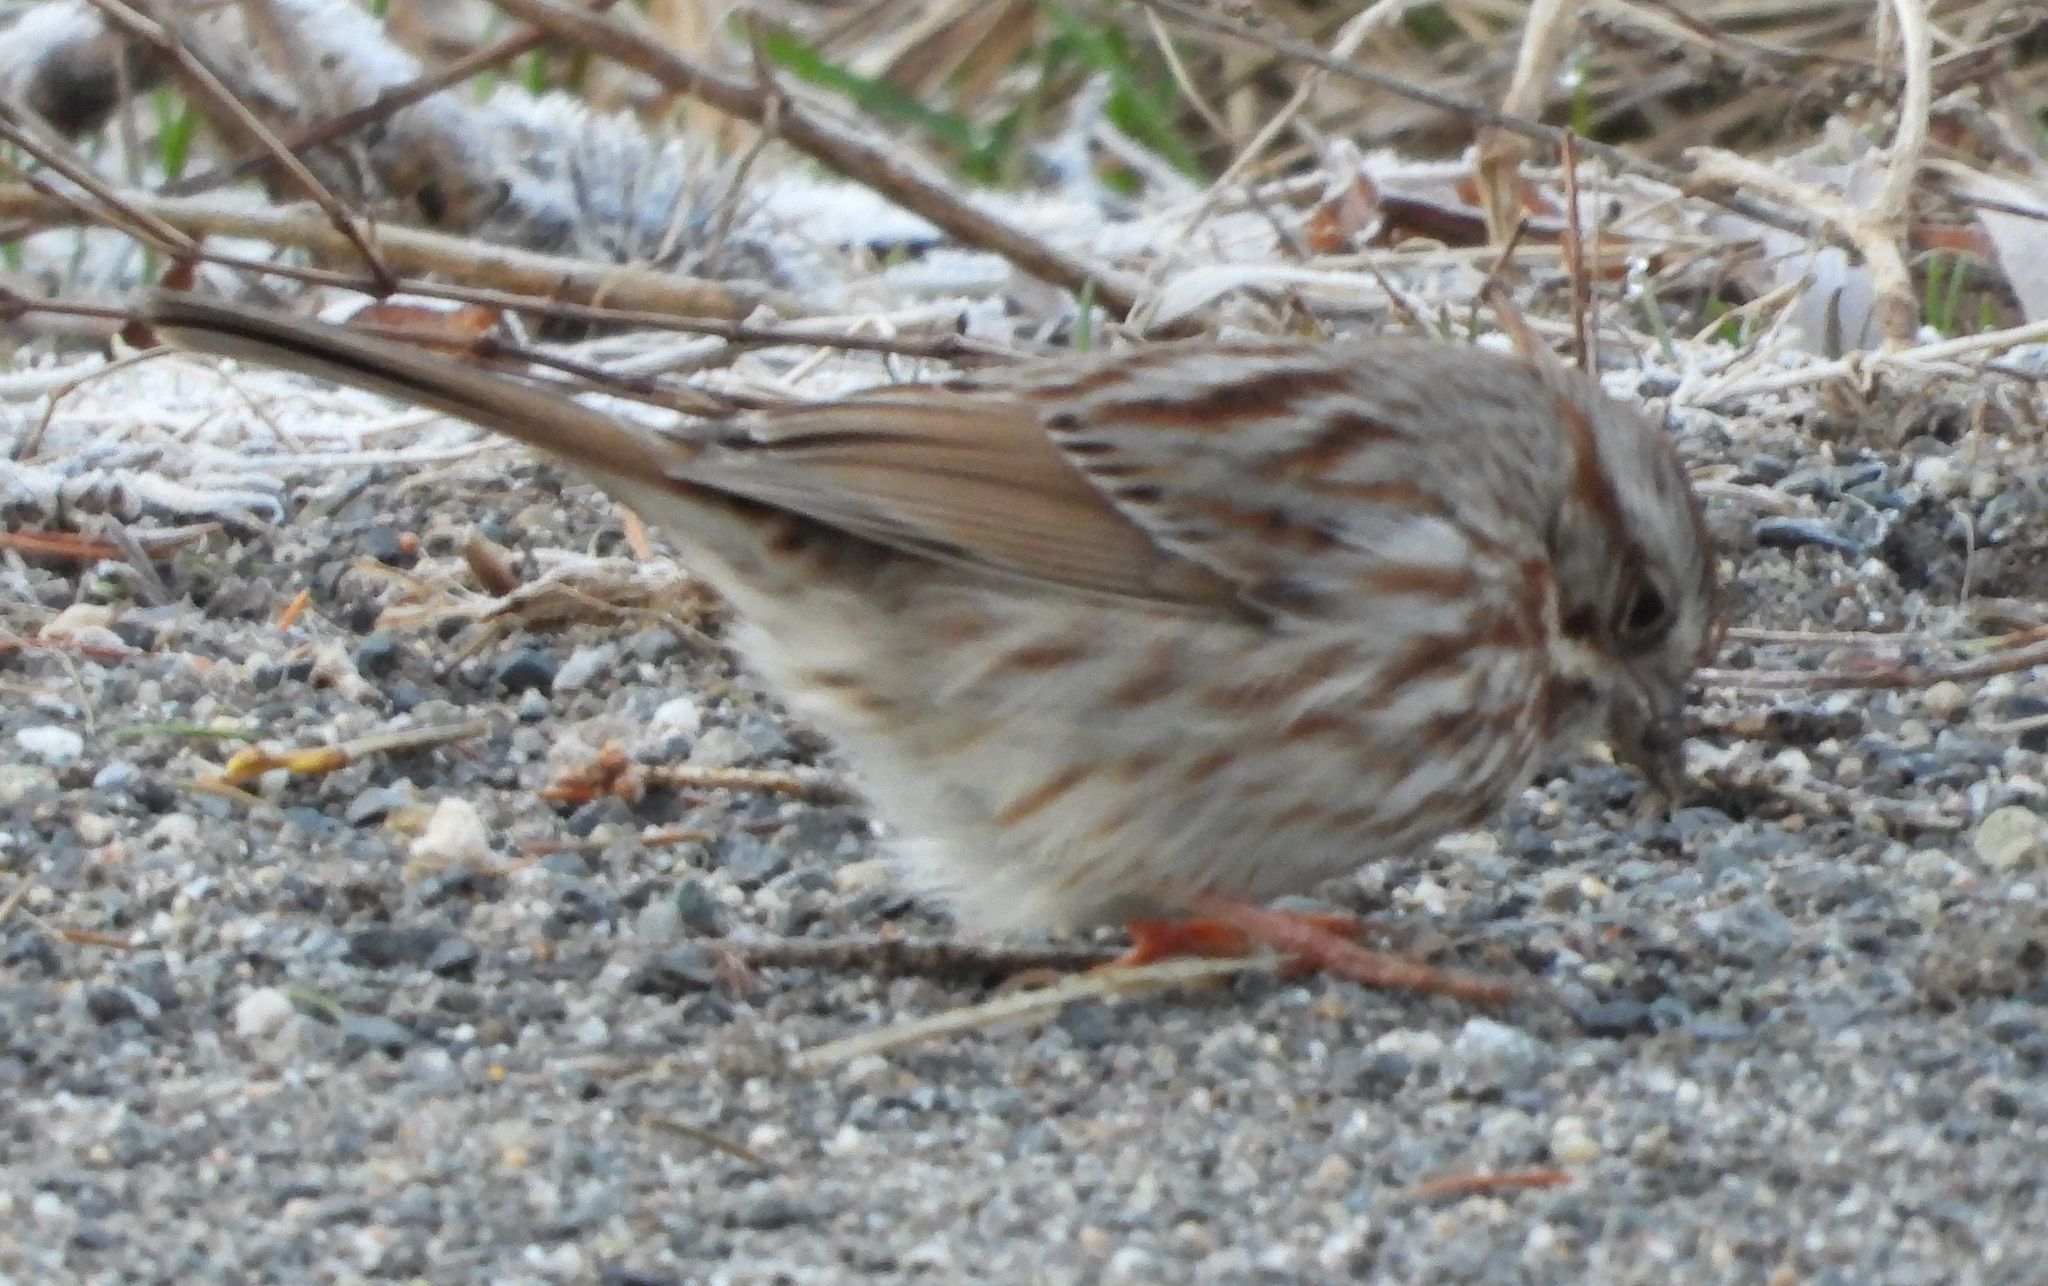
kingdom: Animalia
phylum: Chordata
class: Aves
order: Passeriformes
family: Passerellidae
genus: Melospiza
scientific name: Melospiza melodia
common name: Song sparrow
